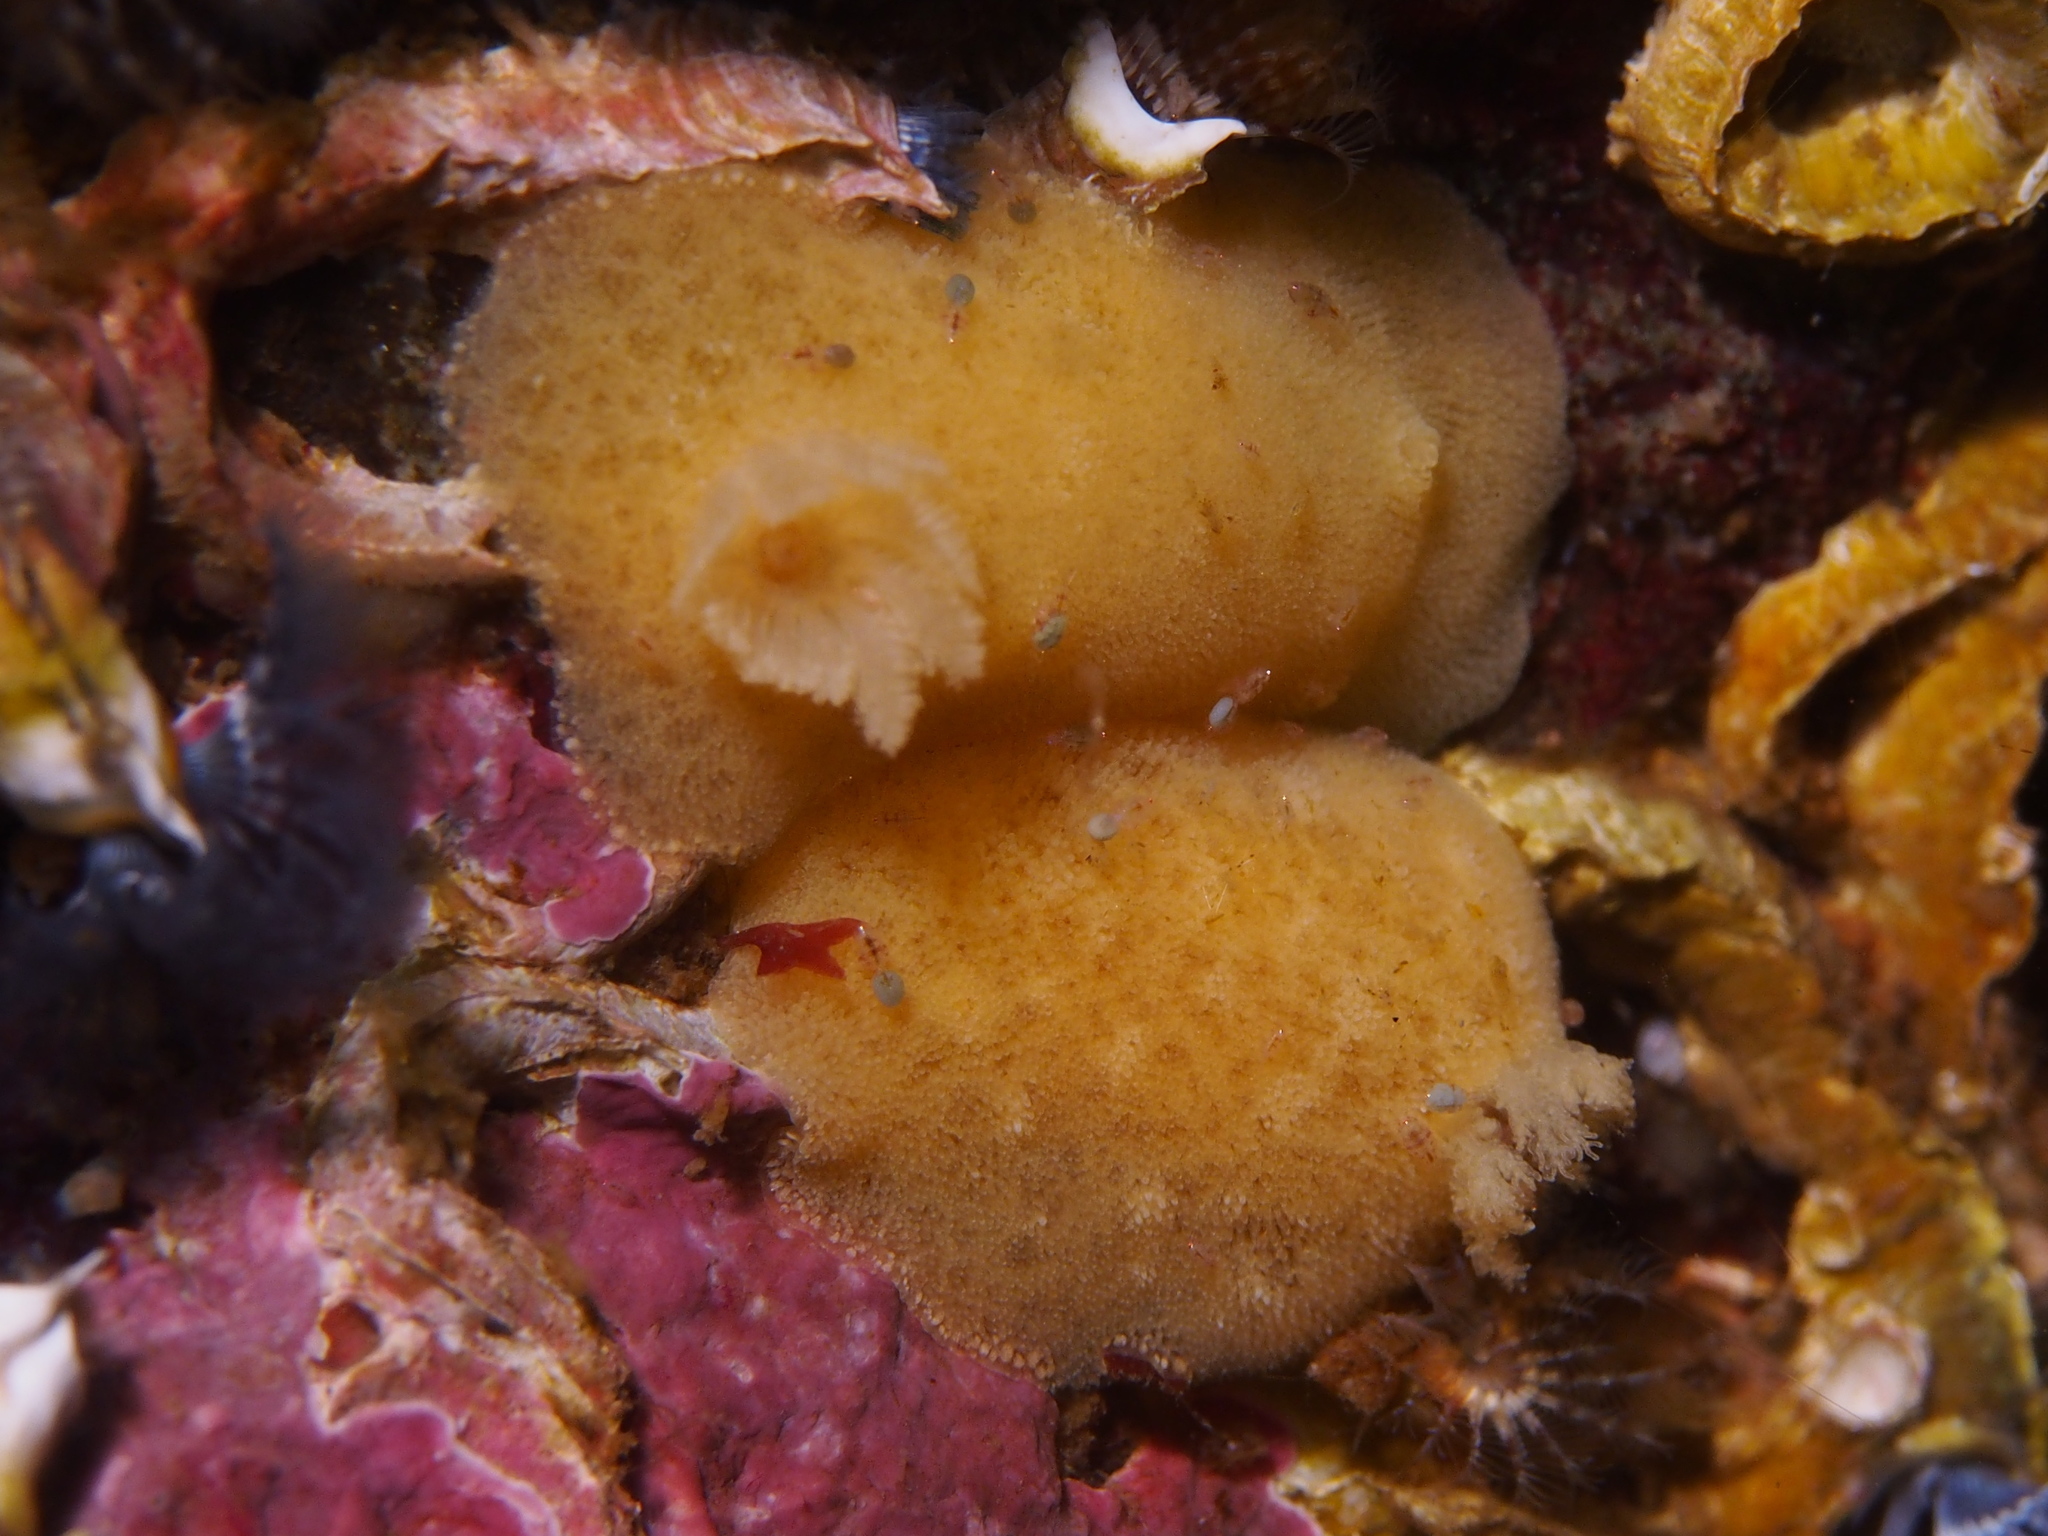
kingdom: Animalia
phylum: Mollusca
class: Gastropoda
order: Nudibranchia
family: Discodorididae
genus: Jorunna
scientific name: Jorunna tomentosa
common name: Grey sea slug
